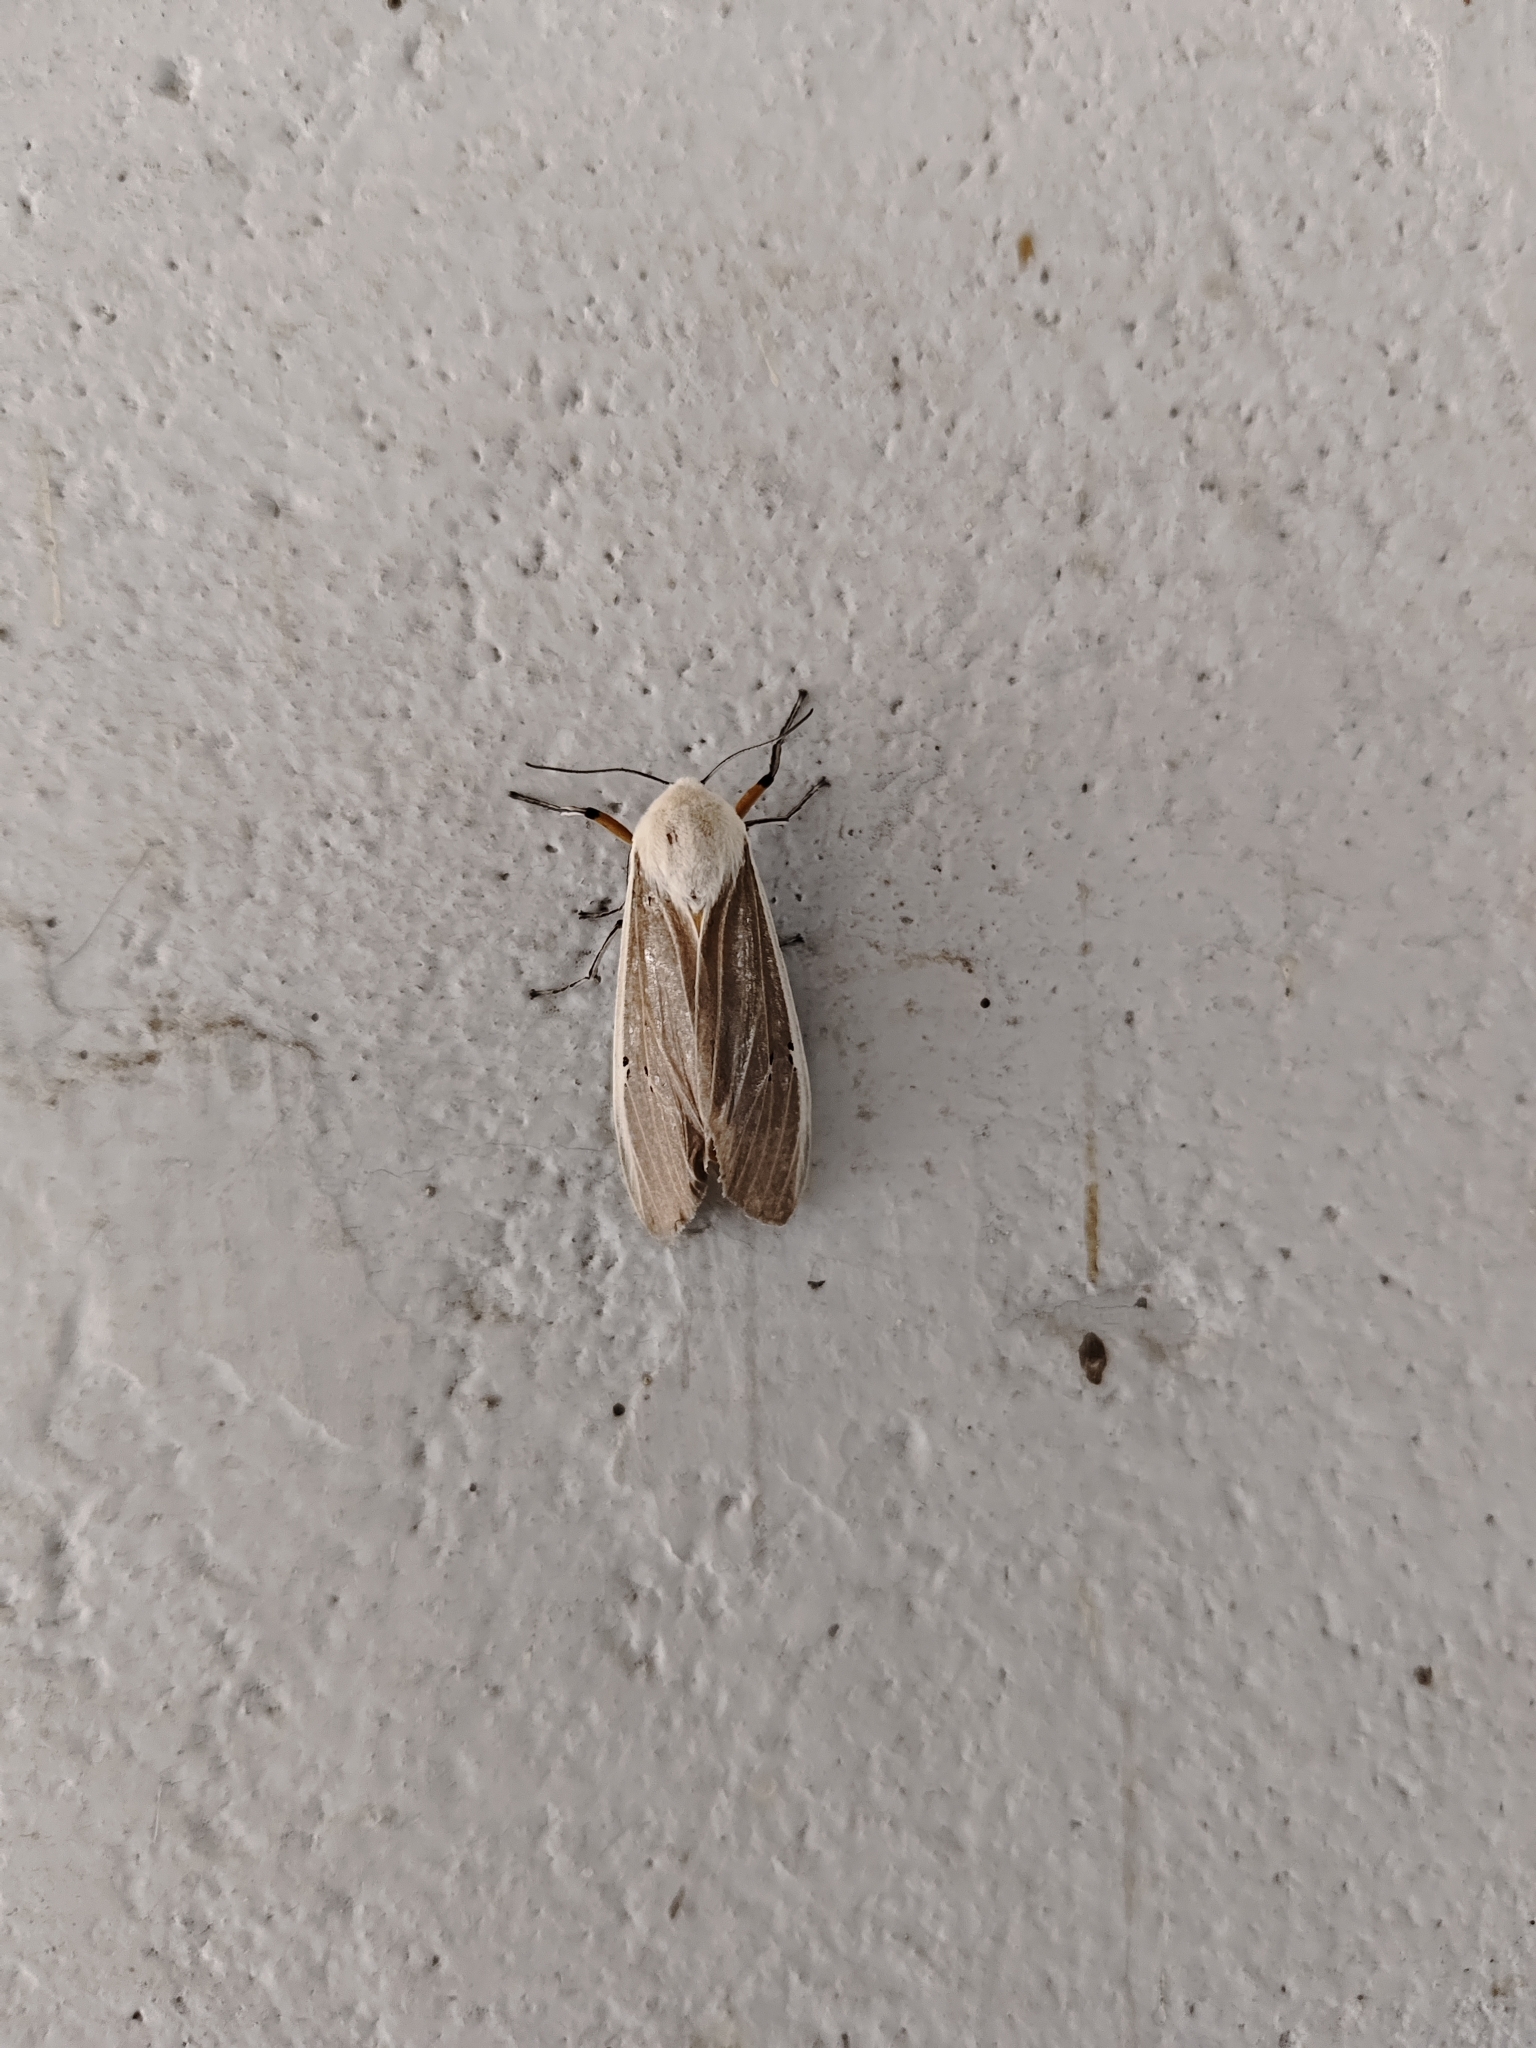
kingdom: Animalia
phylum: Arthropoda
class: Insecta
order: Lepidoptera
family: Erebidae
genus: Creatonotos
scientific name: Creatonotos transiens
